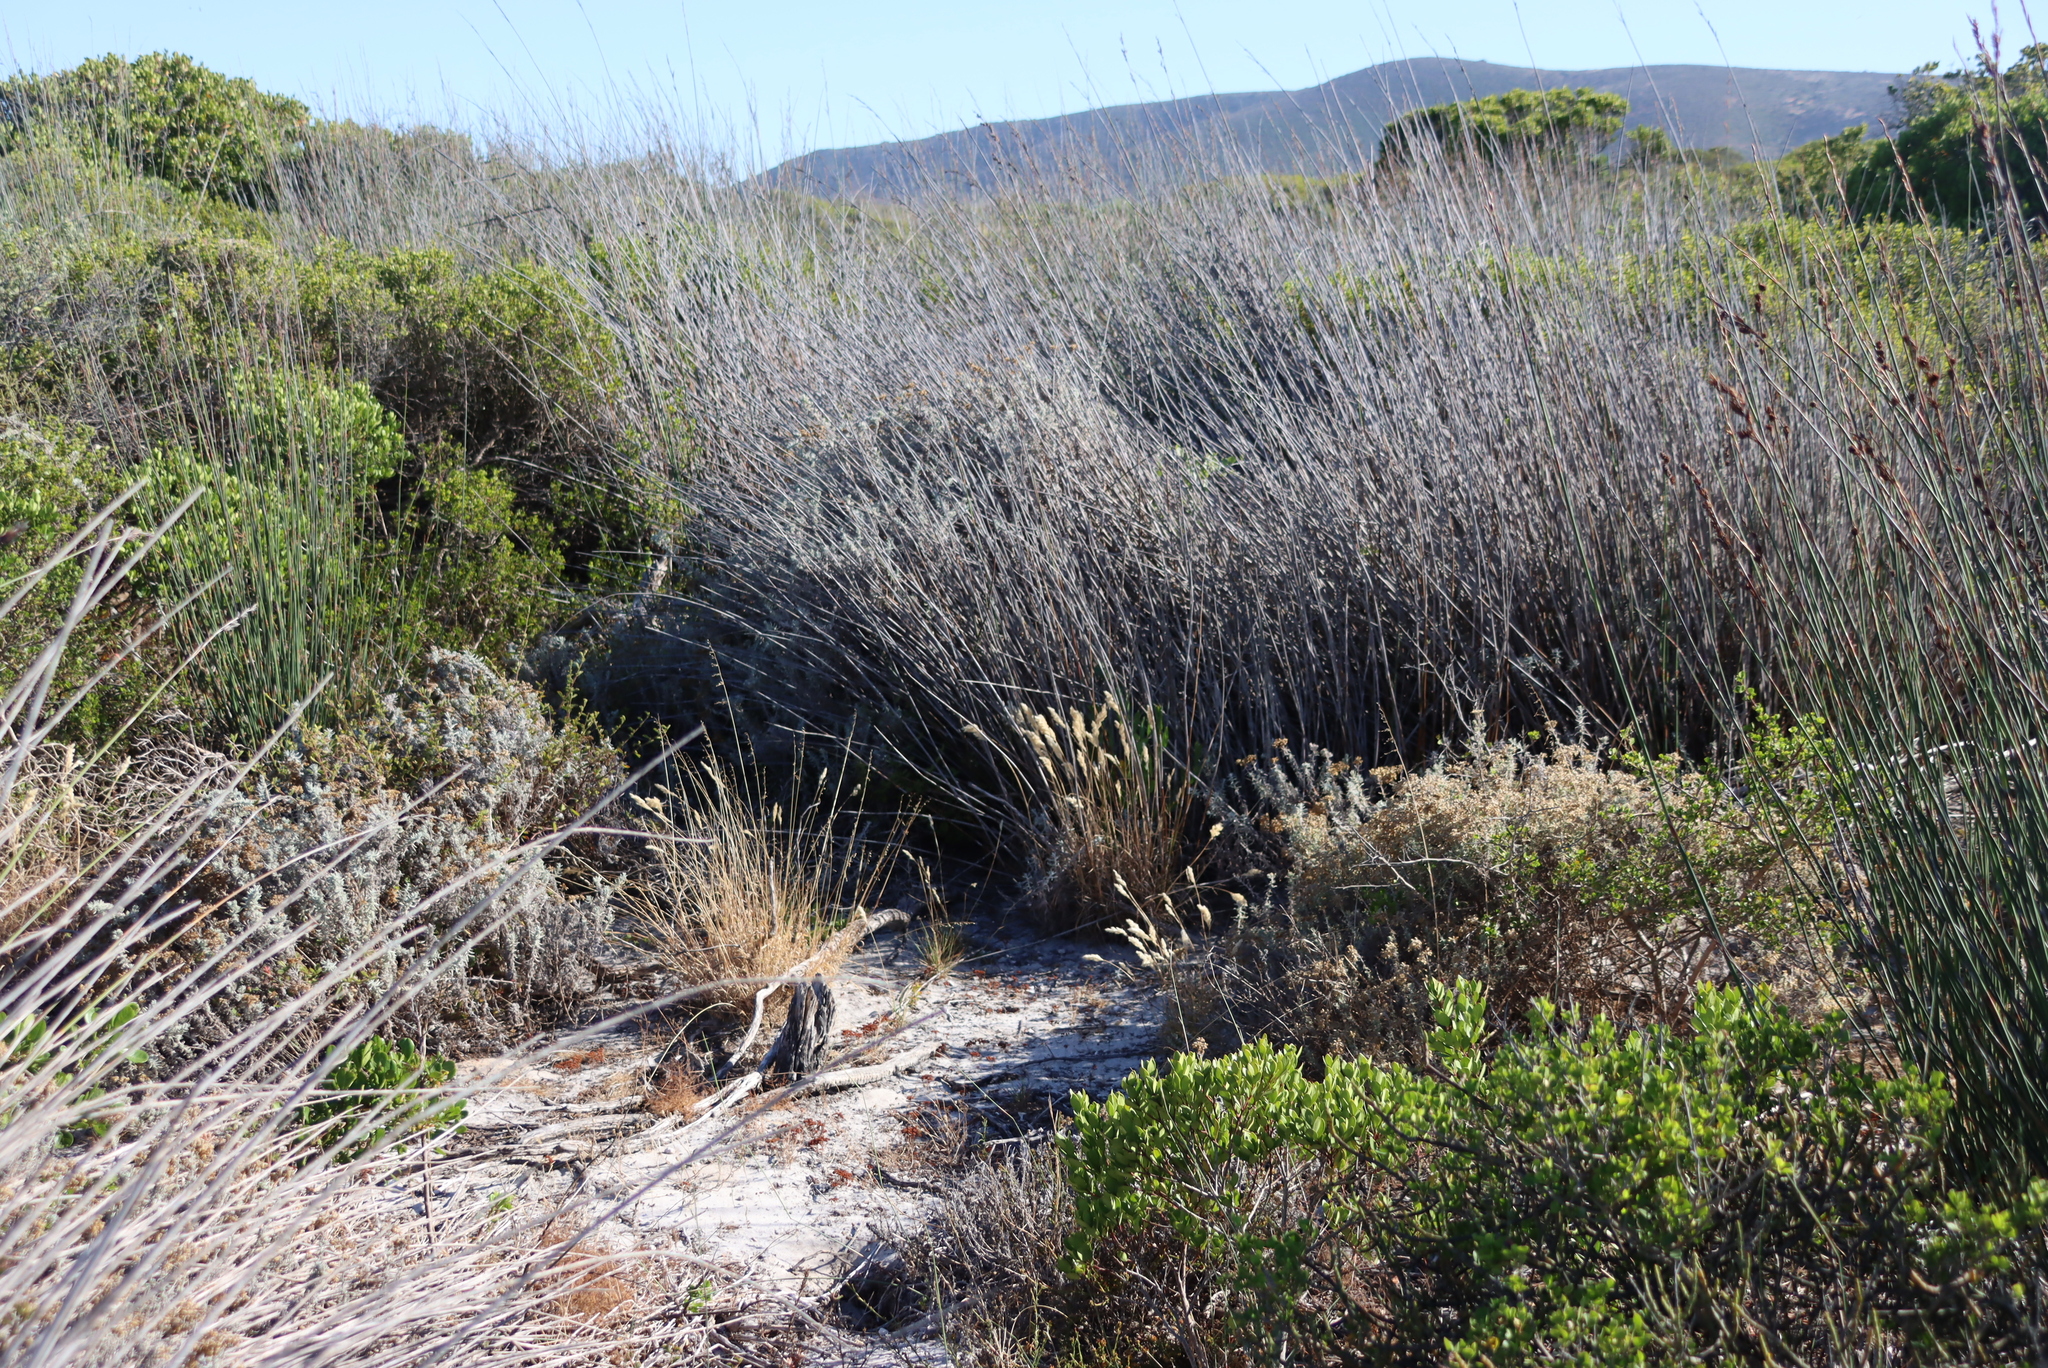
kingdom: Plantae
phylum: Tracheophyta
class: Liliopsida
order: Poales
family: Restionaceae
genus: Thamnochortus
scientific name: Thamnochortus spicigerus
